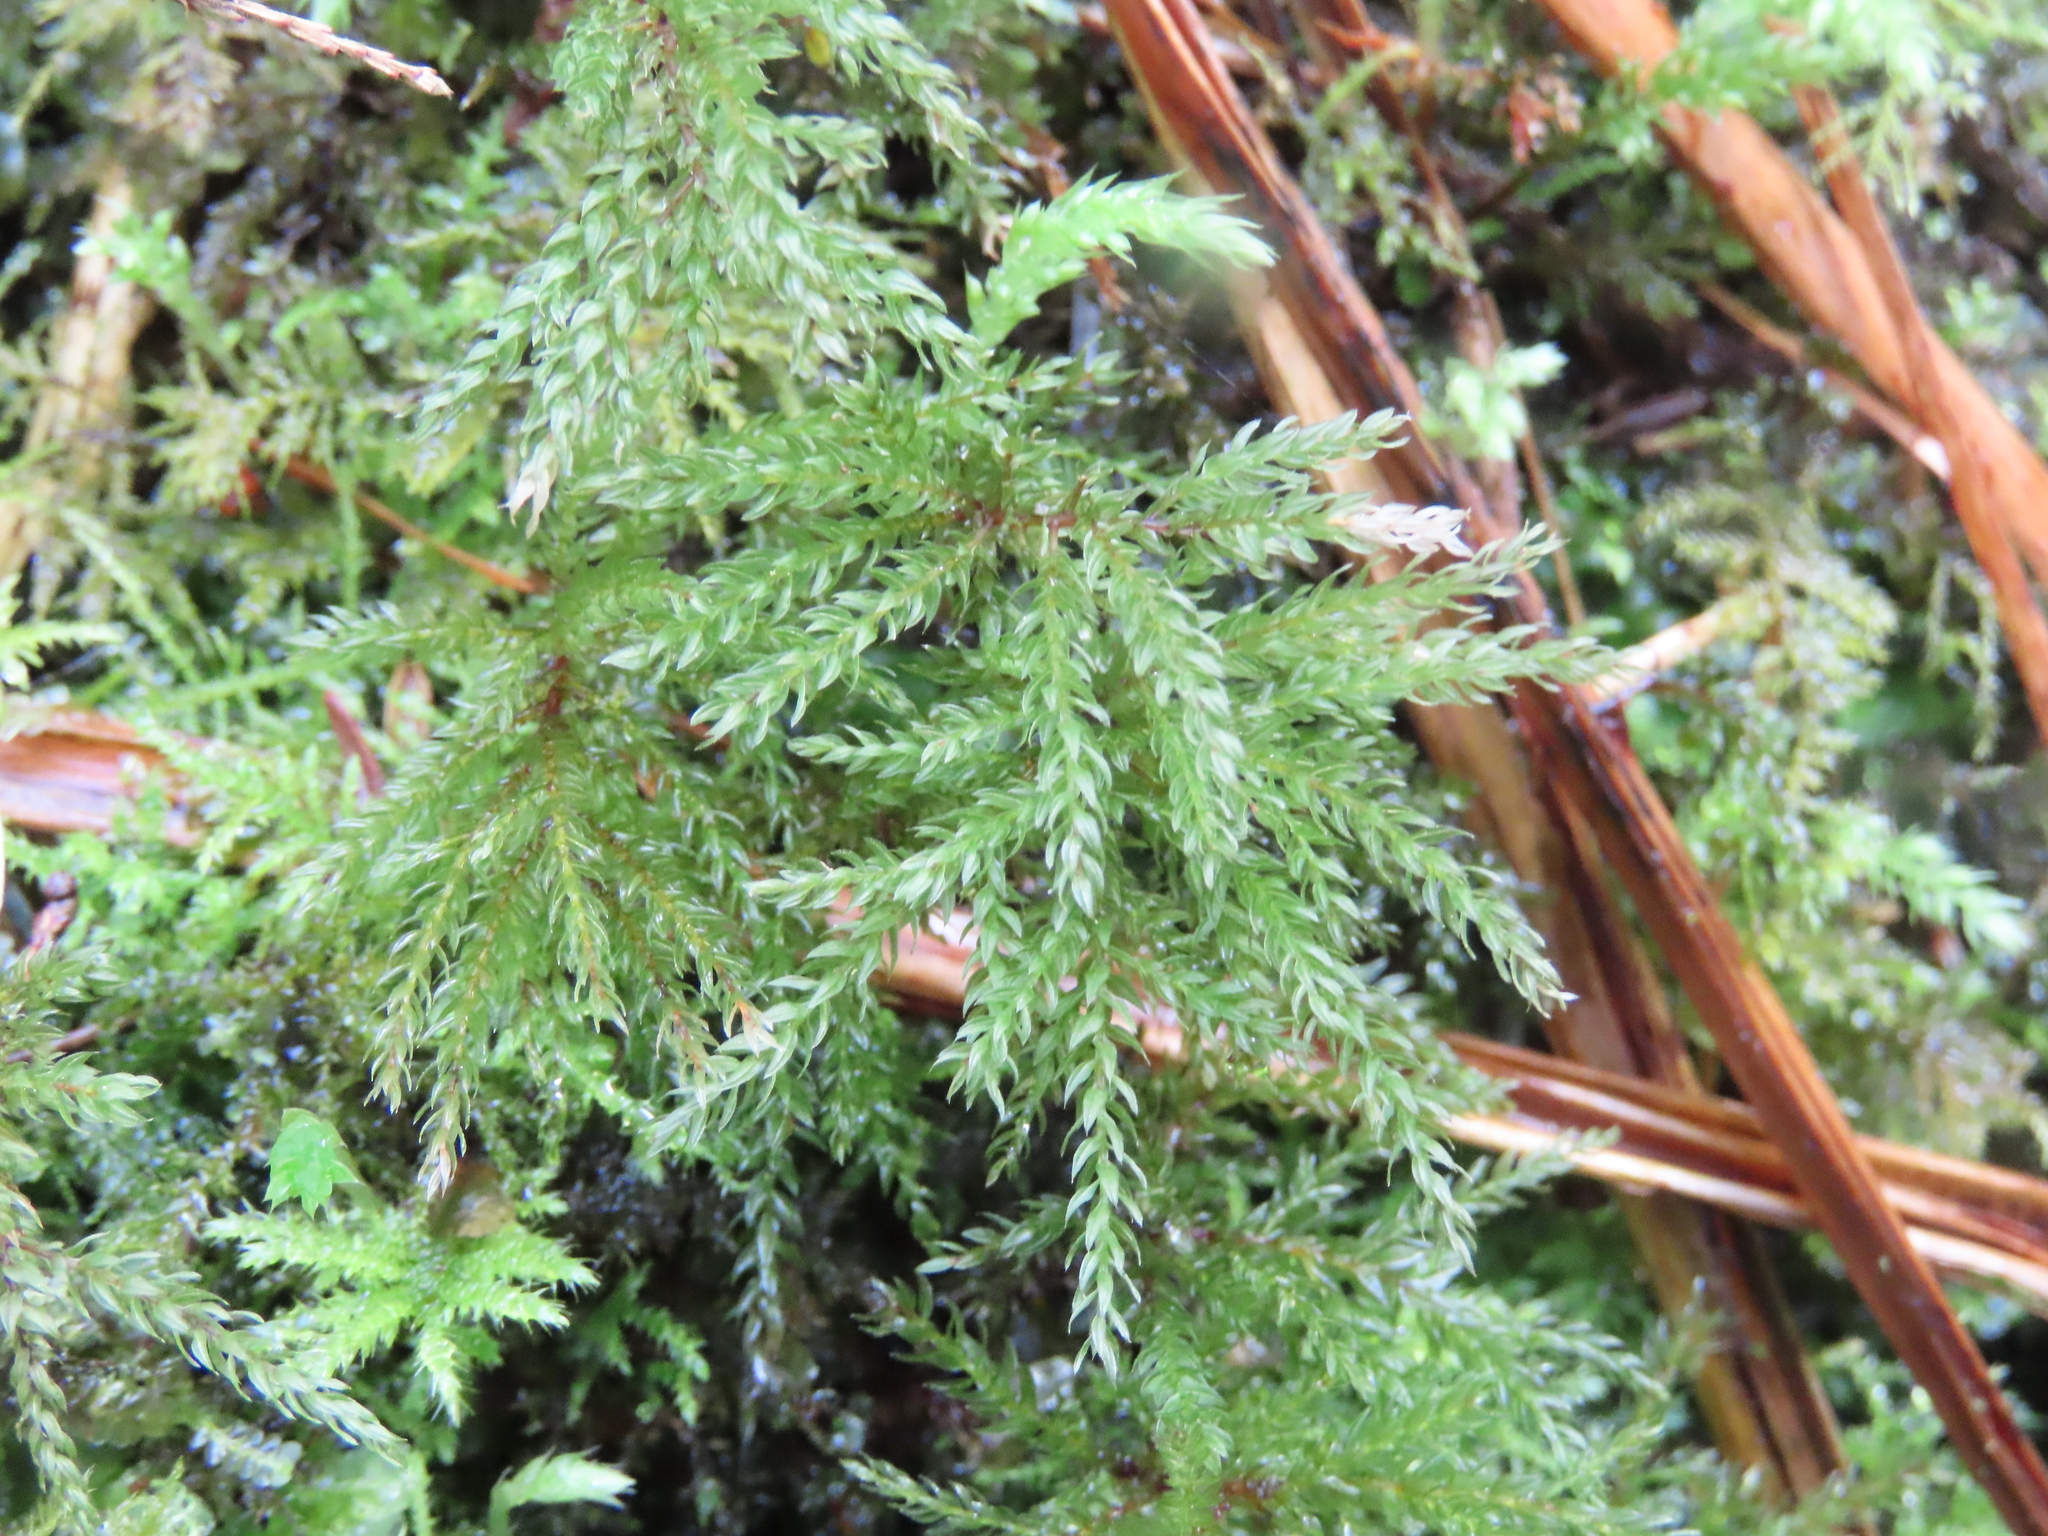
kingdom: Plantae
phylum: Bryophyta
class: Bryopsida
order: Bryales
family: Mniaceae
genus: Leucolepis
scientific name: Leucolepis acanthoneura
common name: Leucolepis umbrella moss
